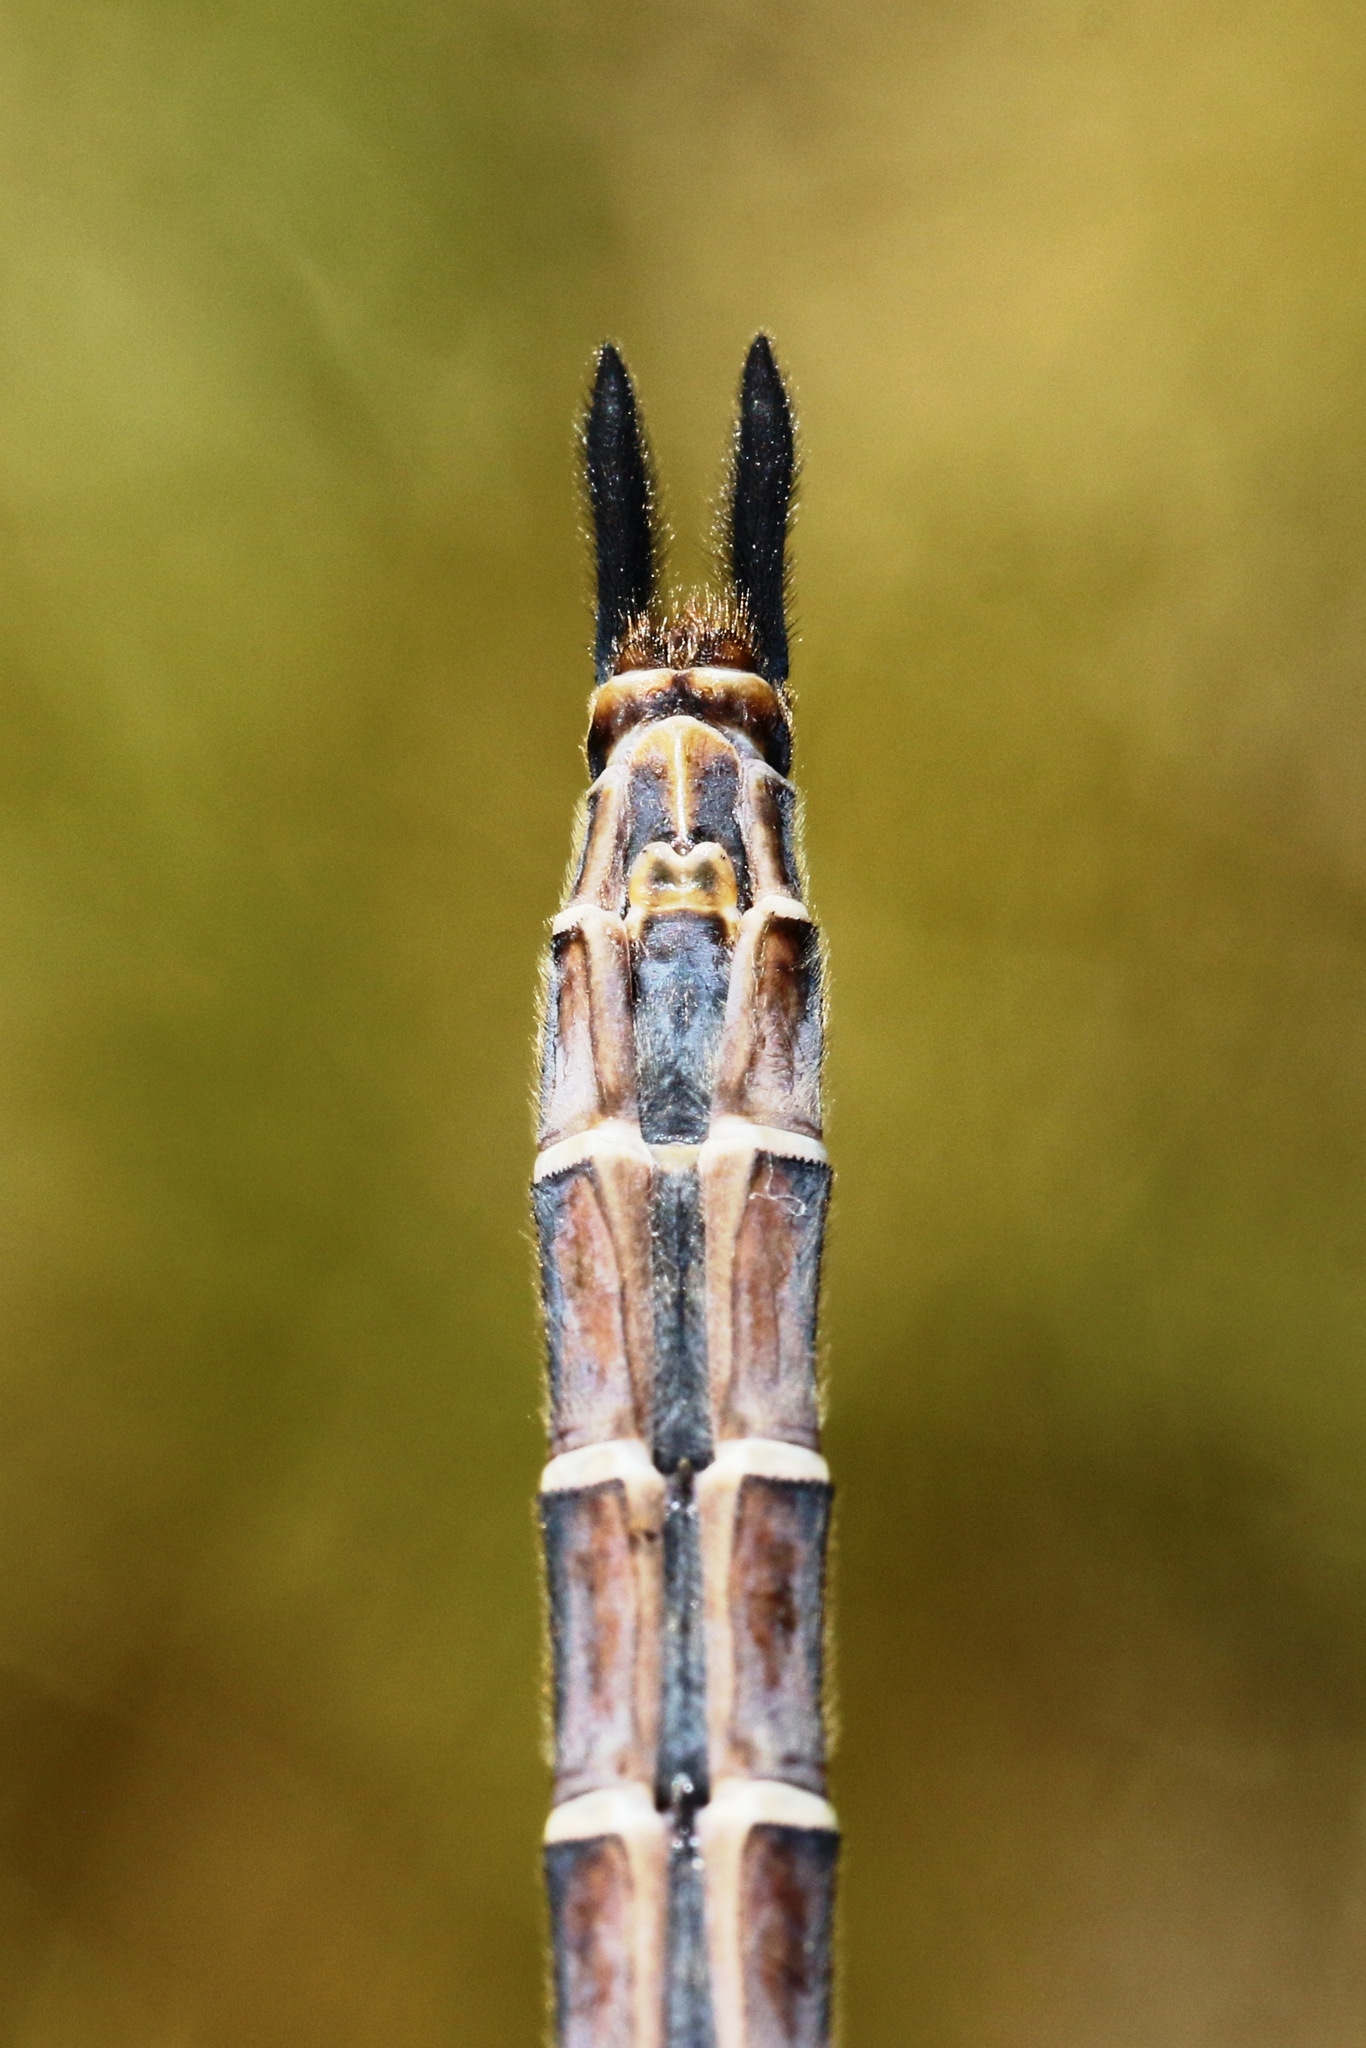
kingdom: Animalia
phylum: Arthropoda
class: Insecta
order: Odonata
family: Corduliidae
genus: Somatochlora
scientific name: Somatochlora cingulata
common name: Lake emerald
